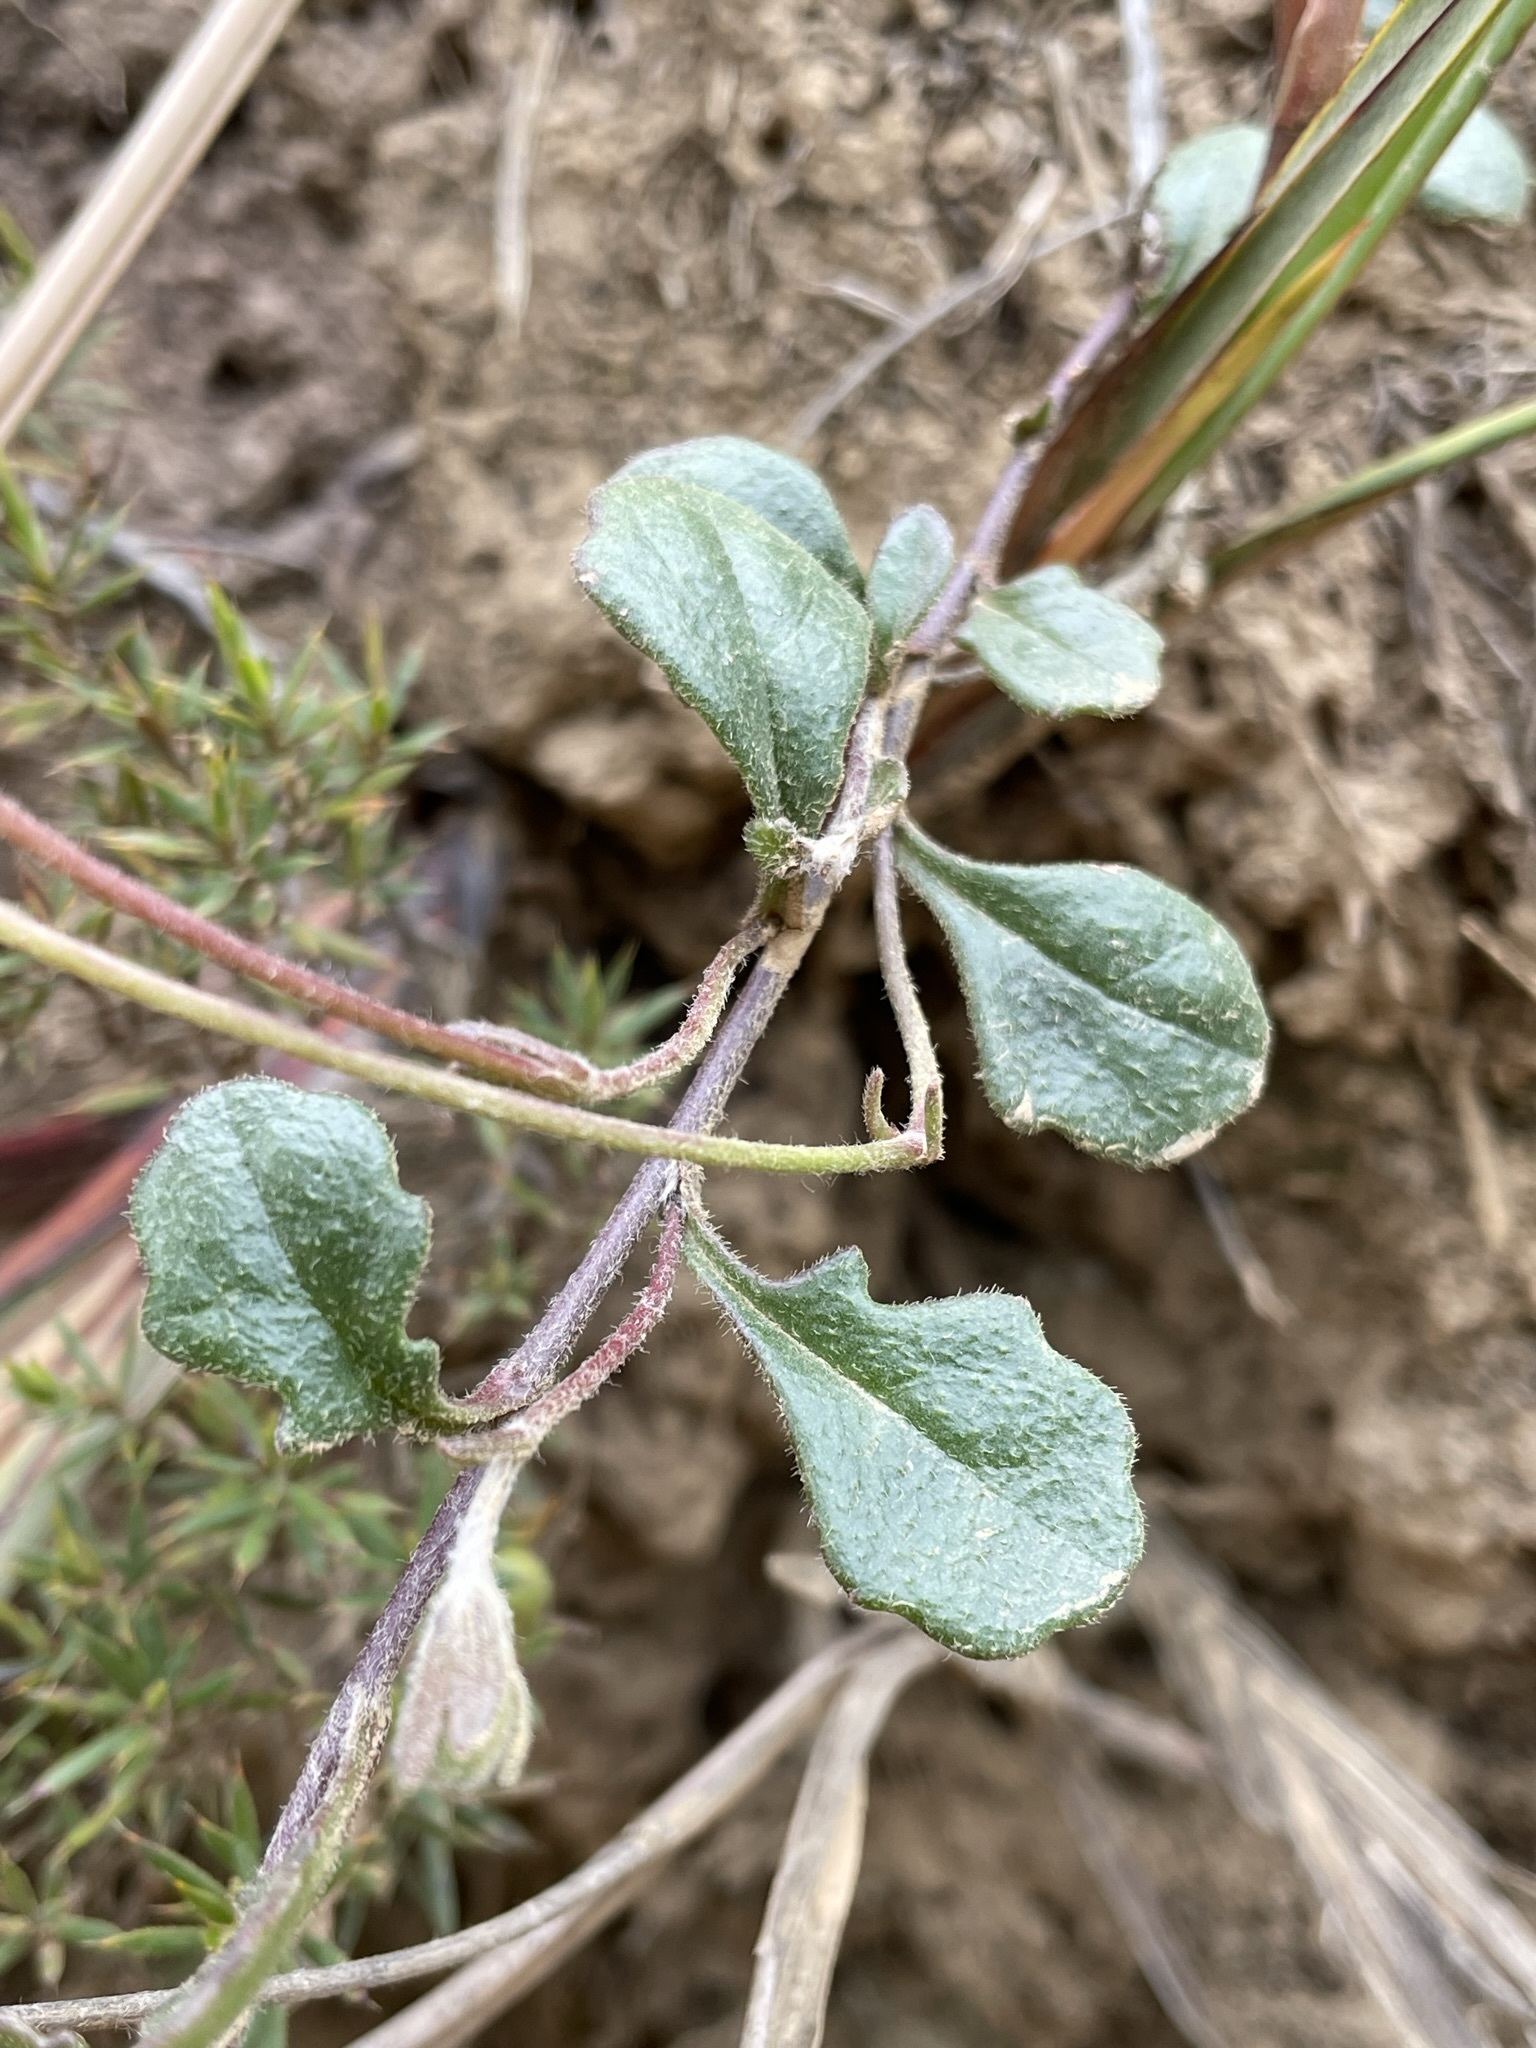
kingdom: Plantae
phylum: Tracheophyta
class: Magnoliopsida
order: Asterales
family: Goodeniaceae
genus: Goodenia
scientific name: Goodenia lanata
